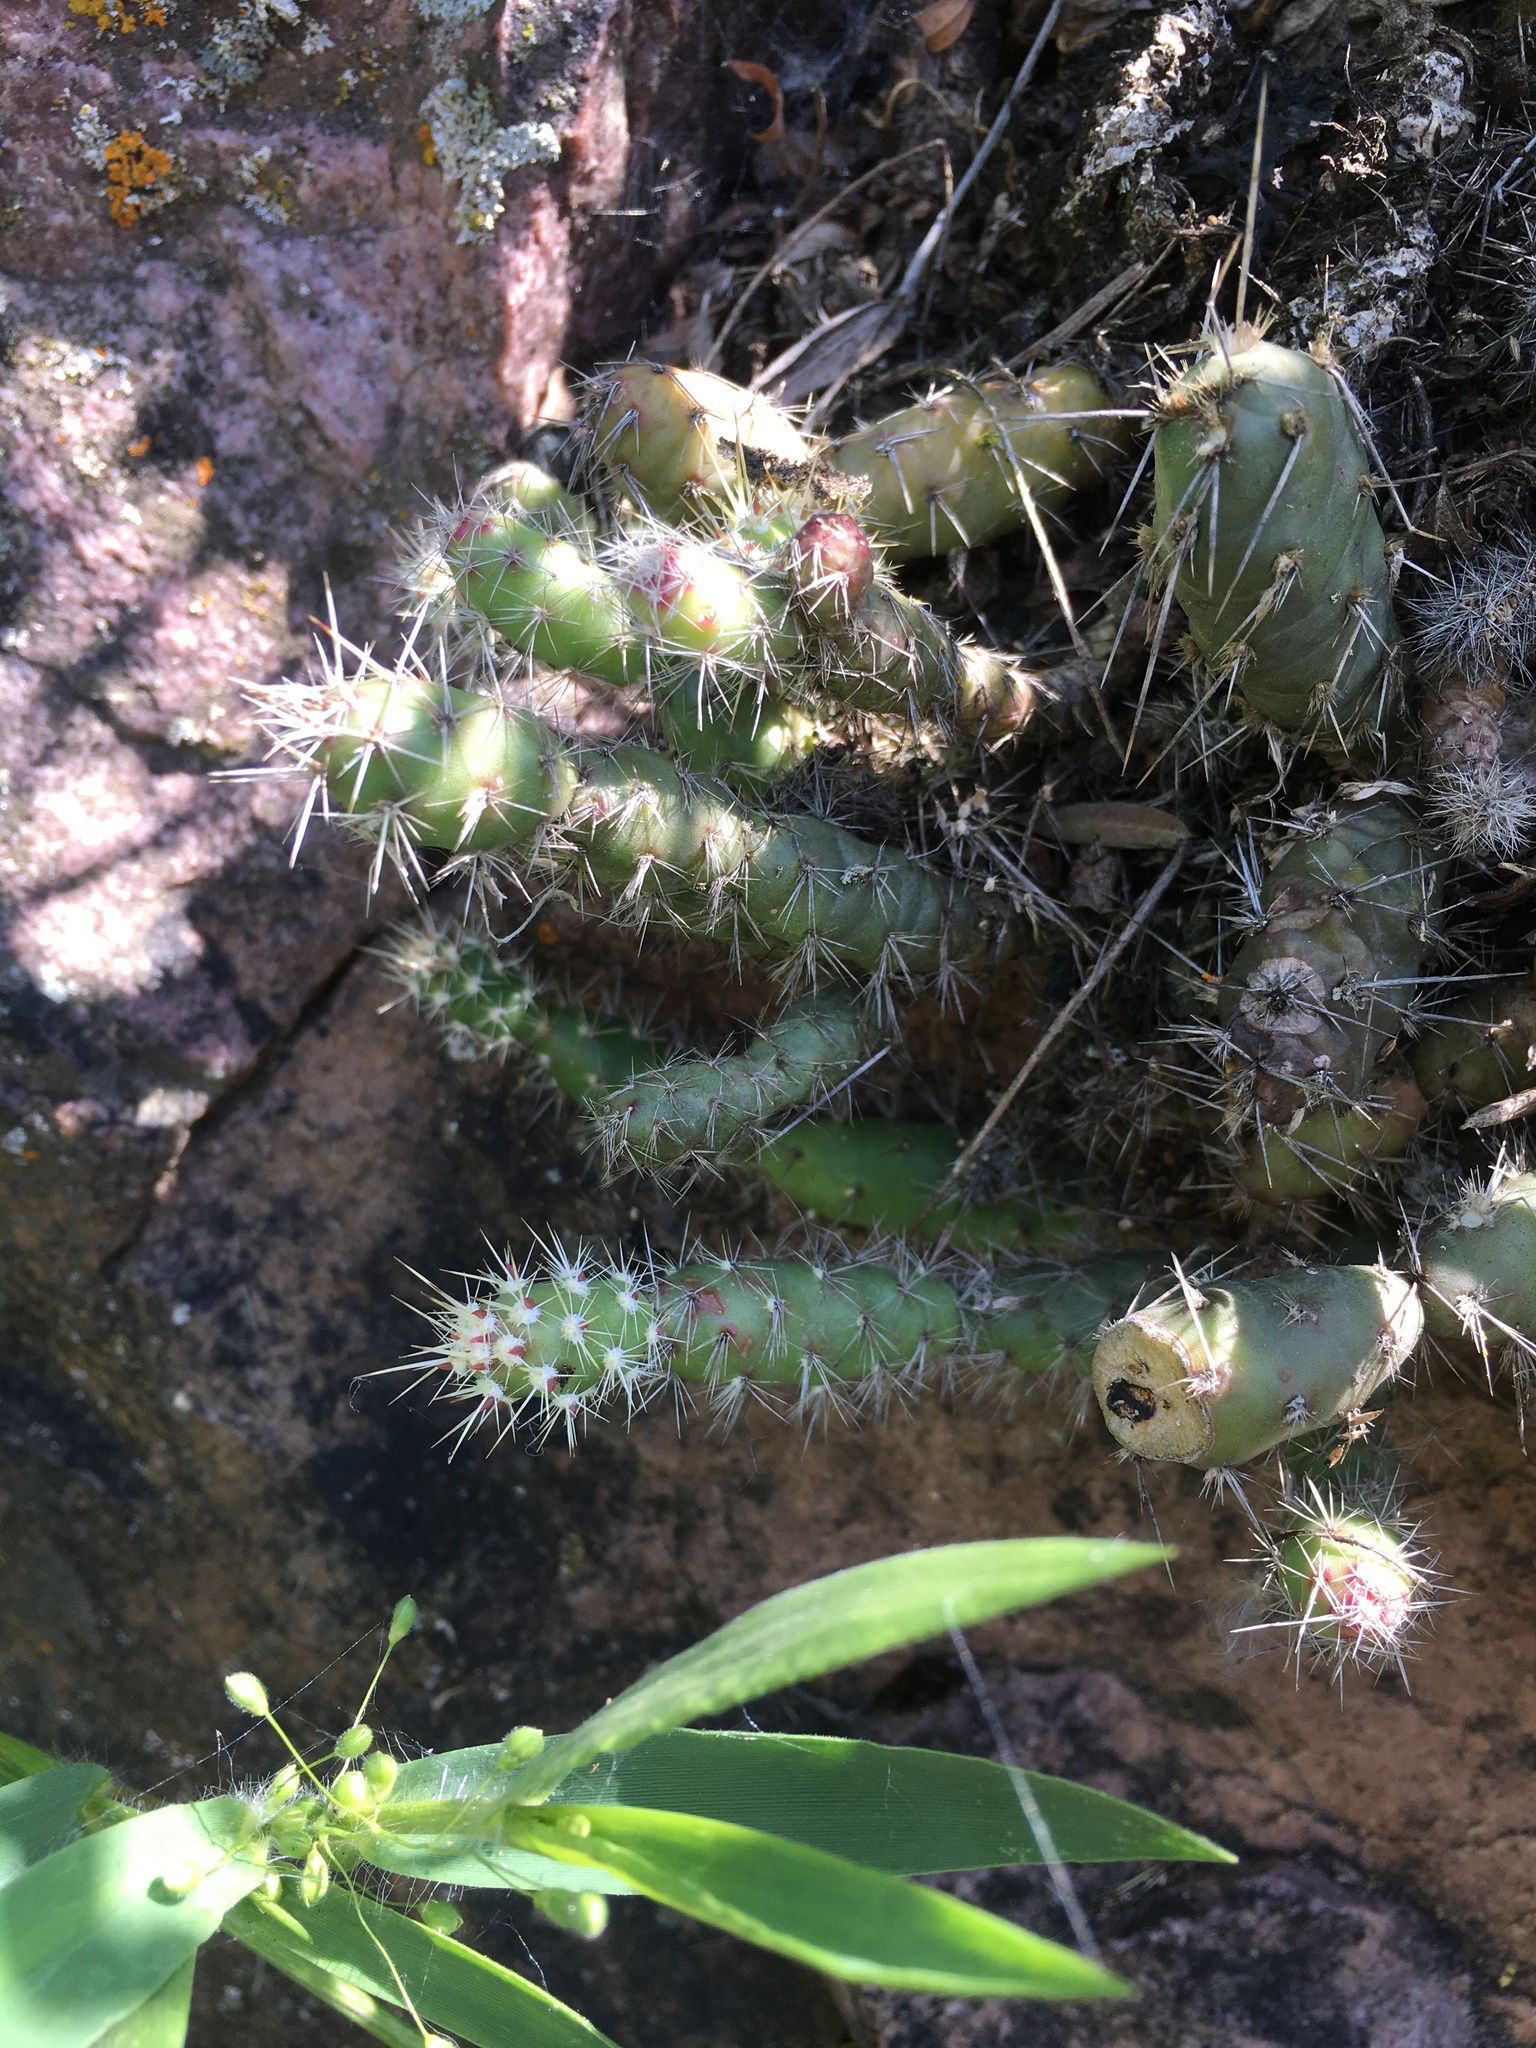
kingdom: Plantae
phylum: Tracheophyta
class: Magnoliopsida
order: Caryophyllales
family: Cactaceae
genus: Opuntia
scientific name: Opuntia fragilis
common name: Brittle cactus
